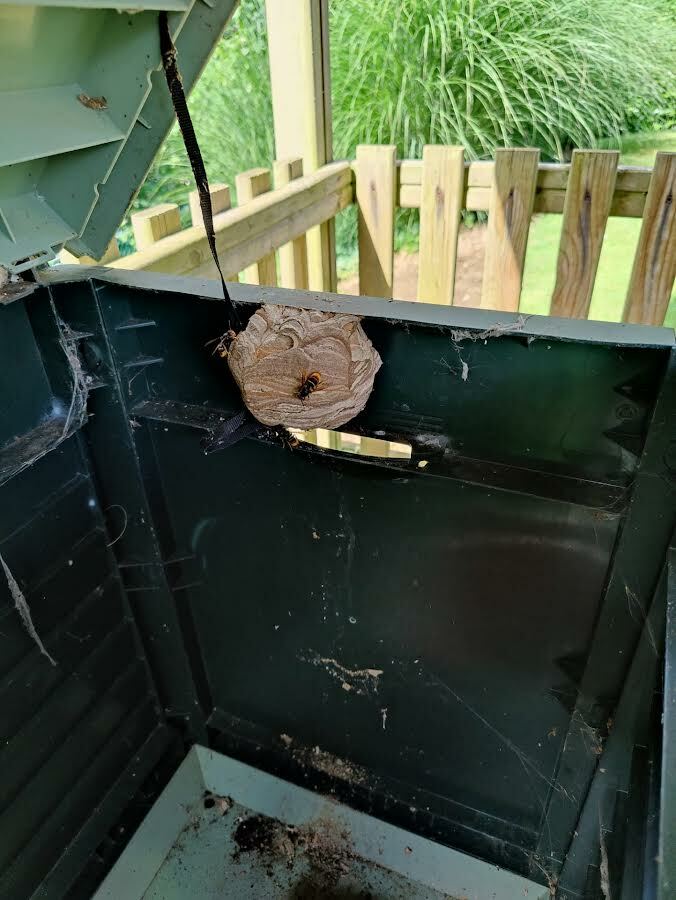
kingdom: Animalia
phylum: Arthropoda
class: Insecta
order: Hymenoptera
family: Vespidae
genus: Vespa
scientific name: Vespa velutina
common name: Asian hornet
